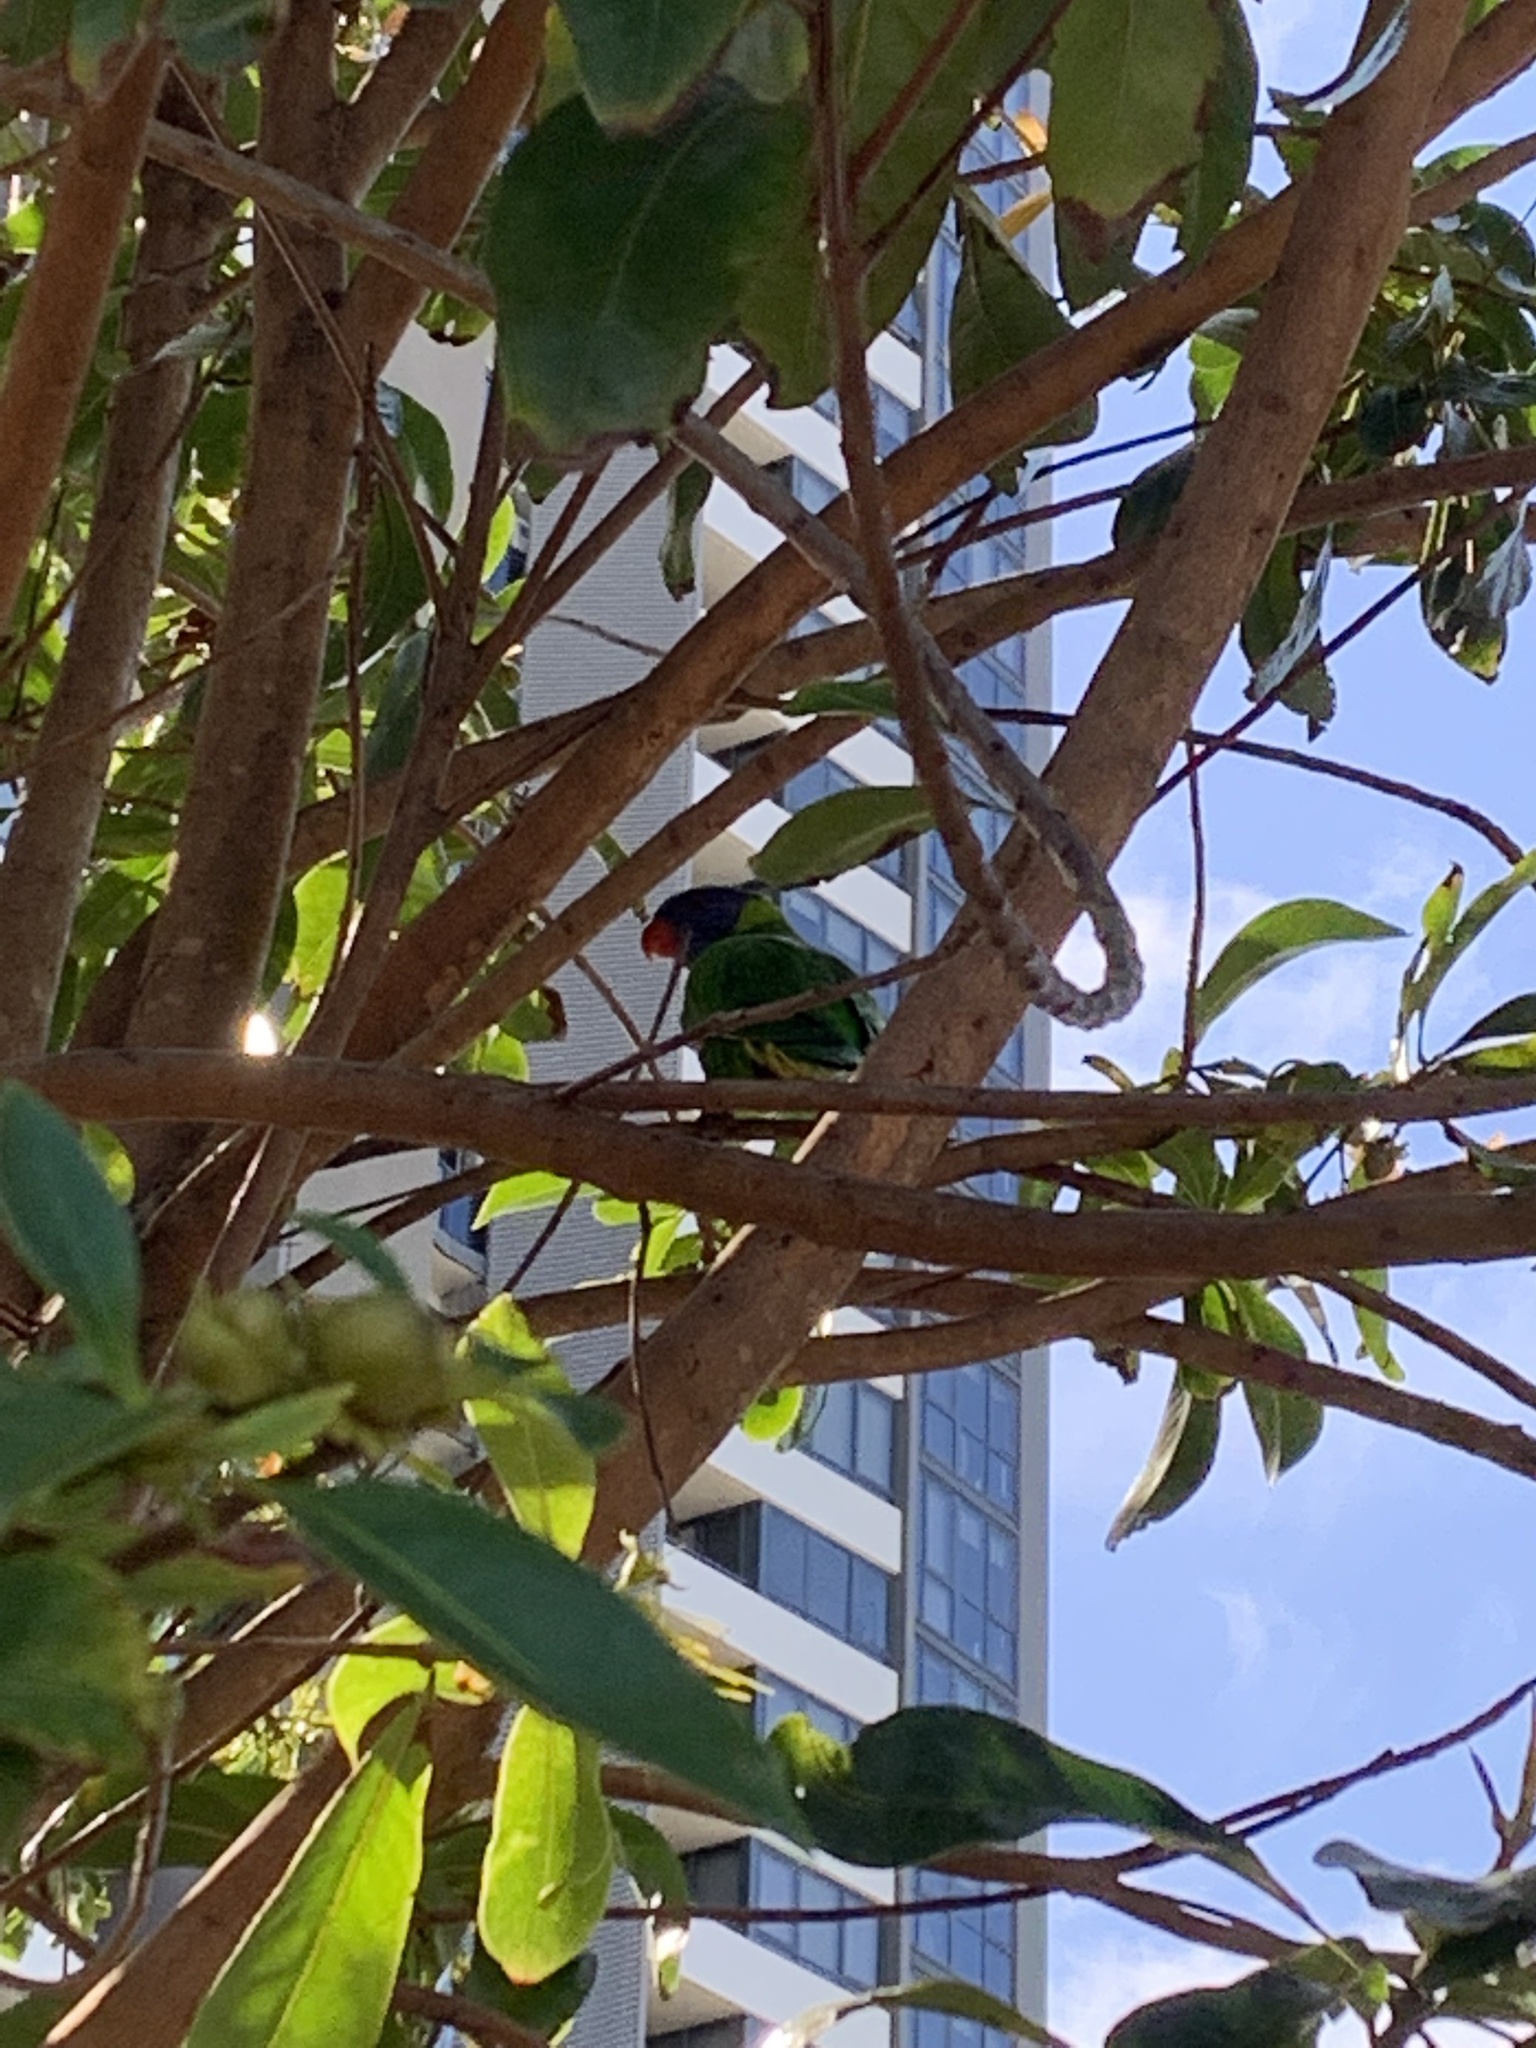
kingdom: Animalia
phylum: Chordata
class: Aves
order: Psittaciformes
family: Psittacidae
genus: Trichoglossus
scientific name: Trichoglossus haematodus
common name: Coconut lorikeet
